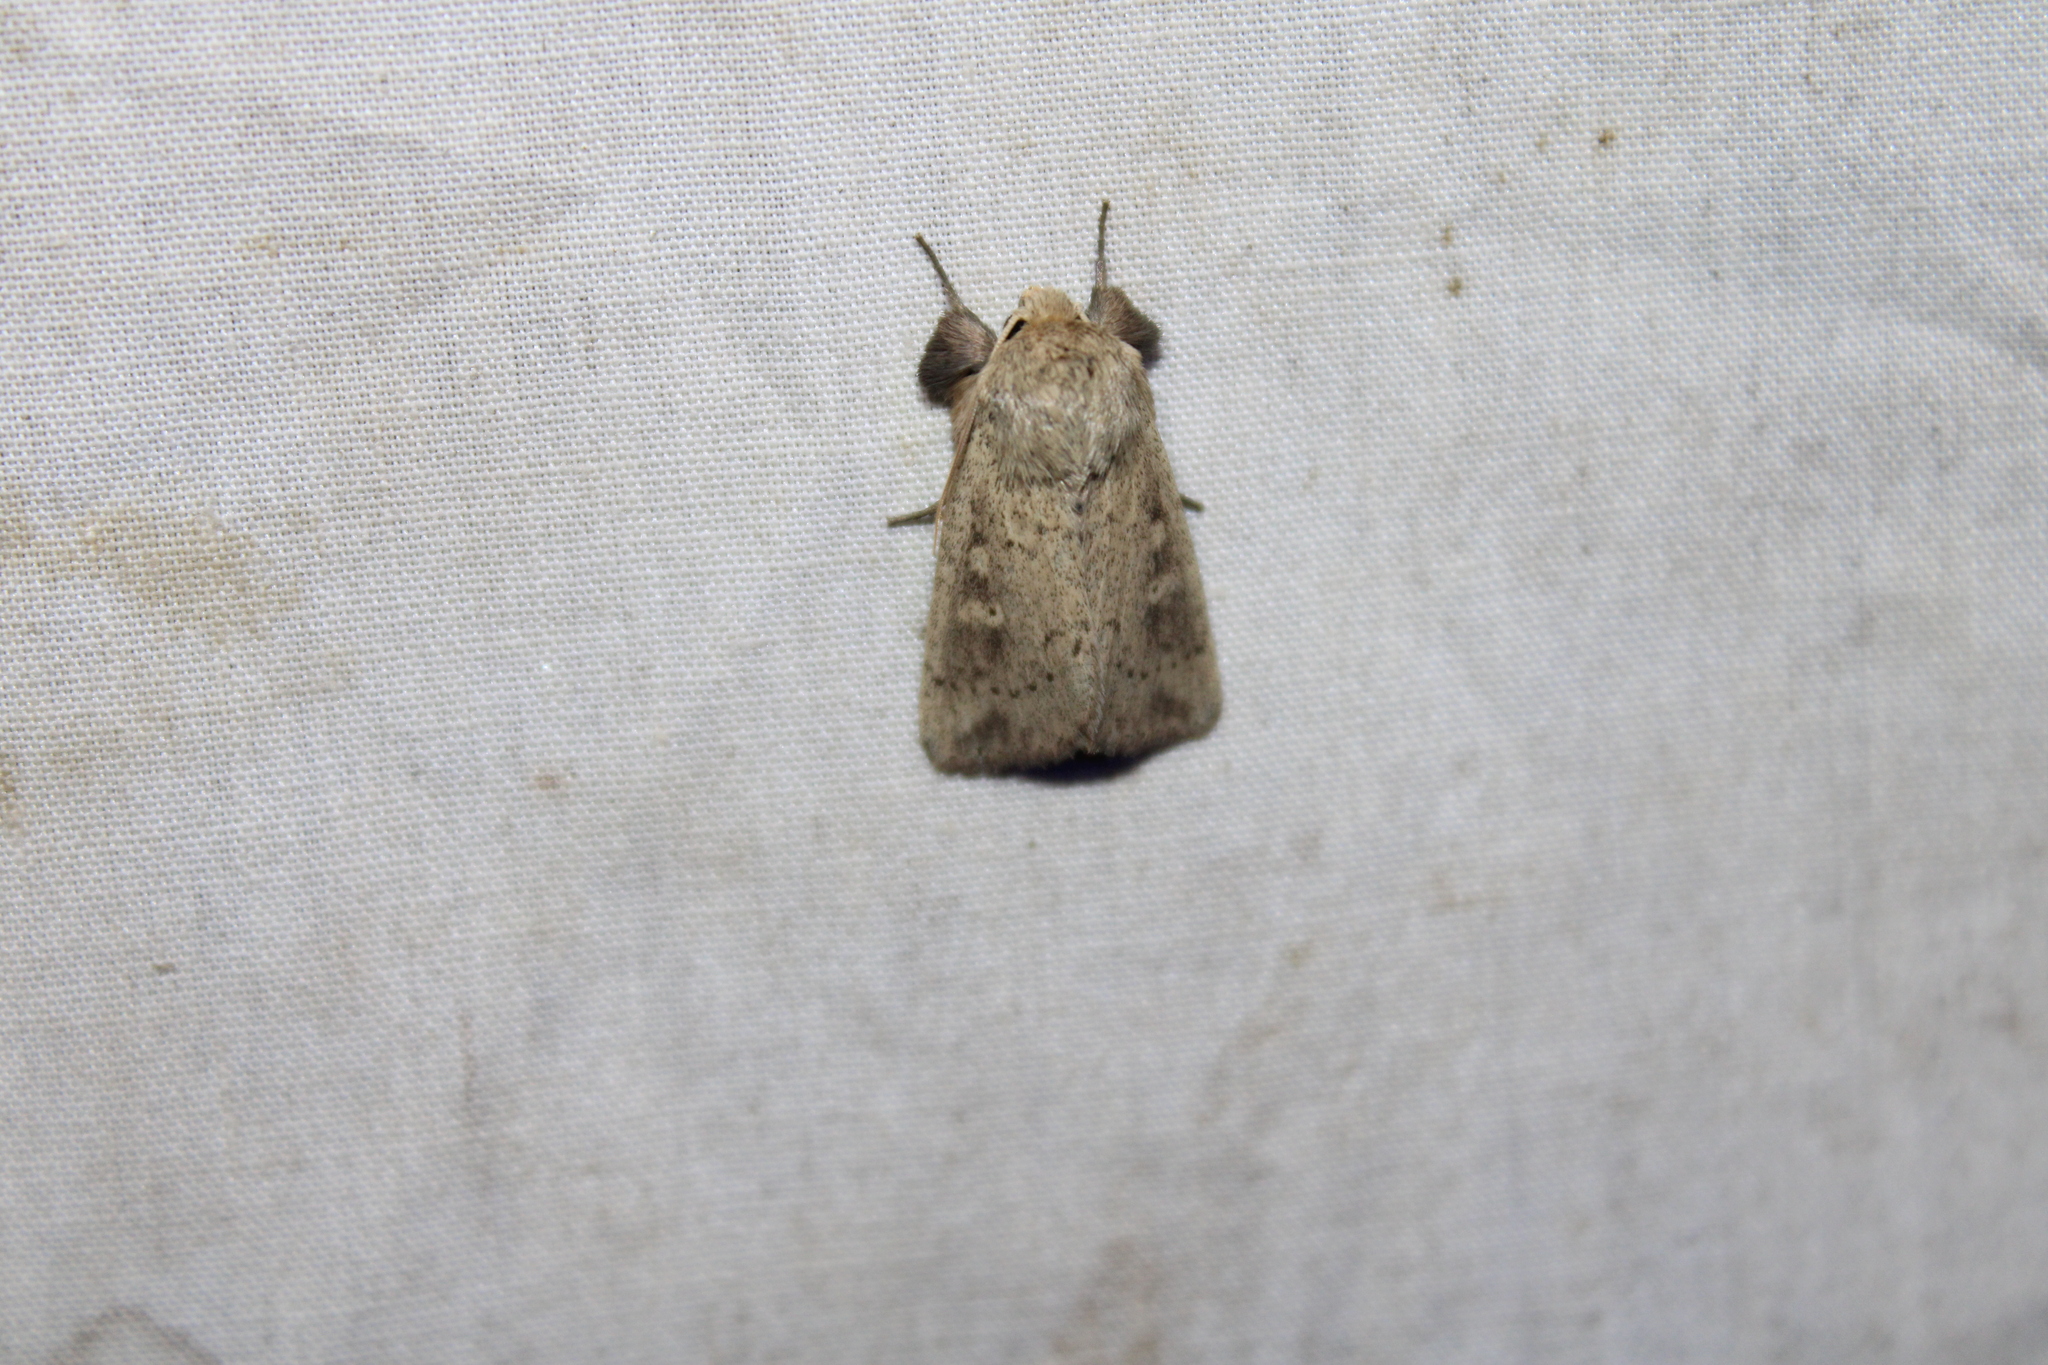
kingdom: Animalia
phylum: Arthropoda
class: Insecta
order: Lepidoptera
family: Noctuidae
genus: Leucania
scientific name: Leucania ursula
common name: Ursula wainscot
